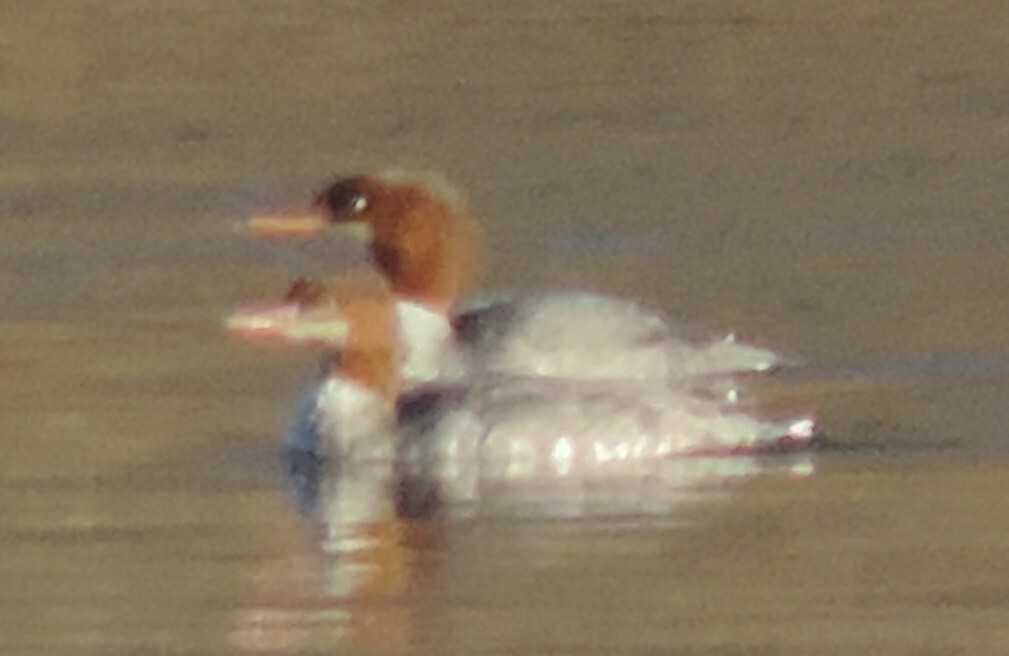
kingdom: Animalia
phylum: Chordata
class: Aves
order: Anseriformes
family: Anatidae
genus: Mergus
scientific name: Mergus merganser
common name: Common merganser
